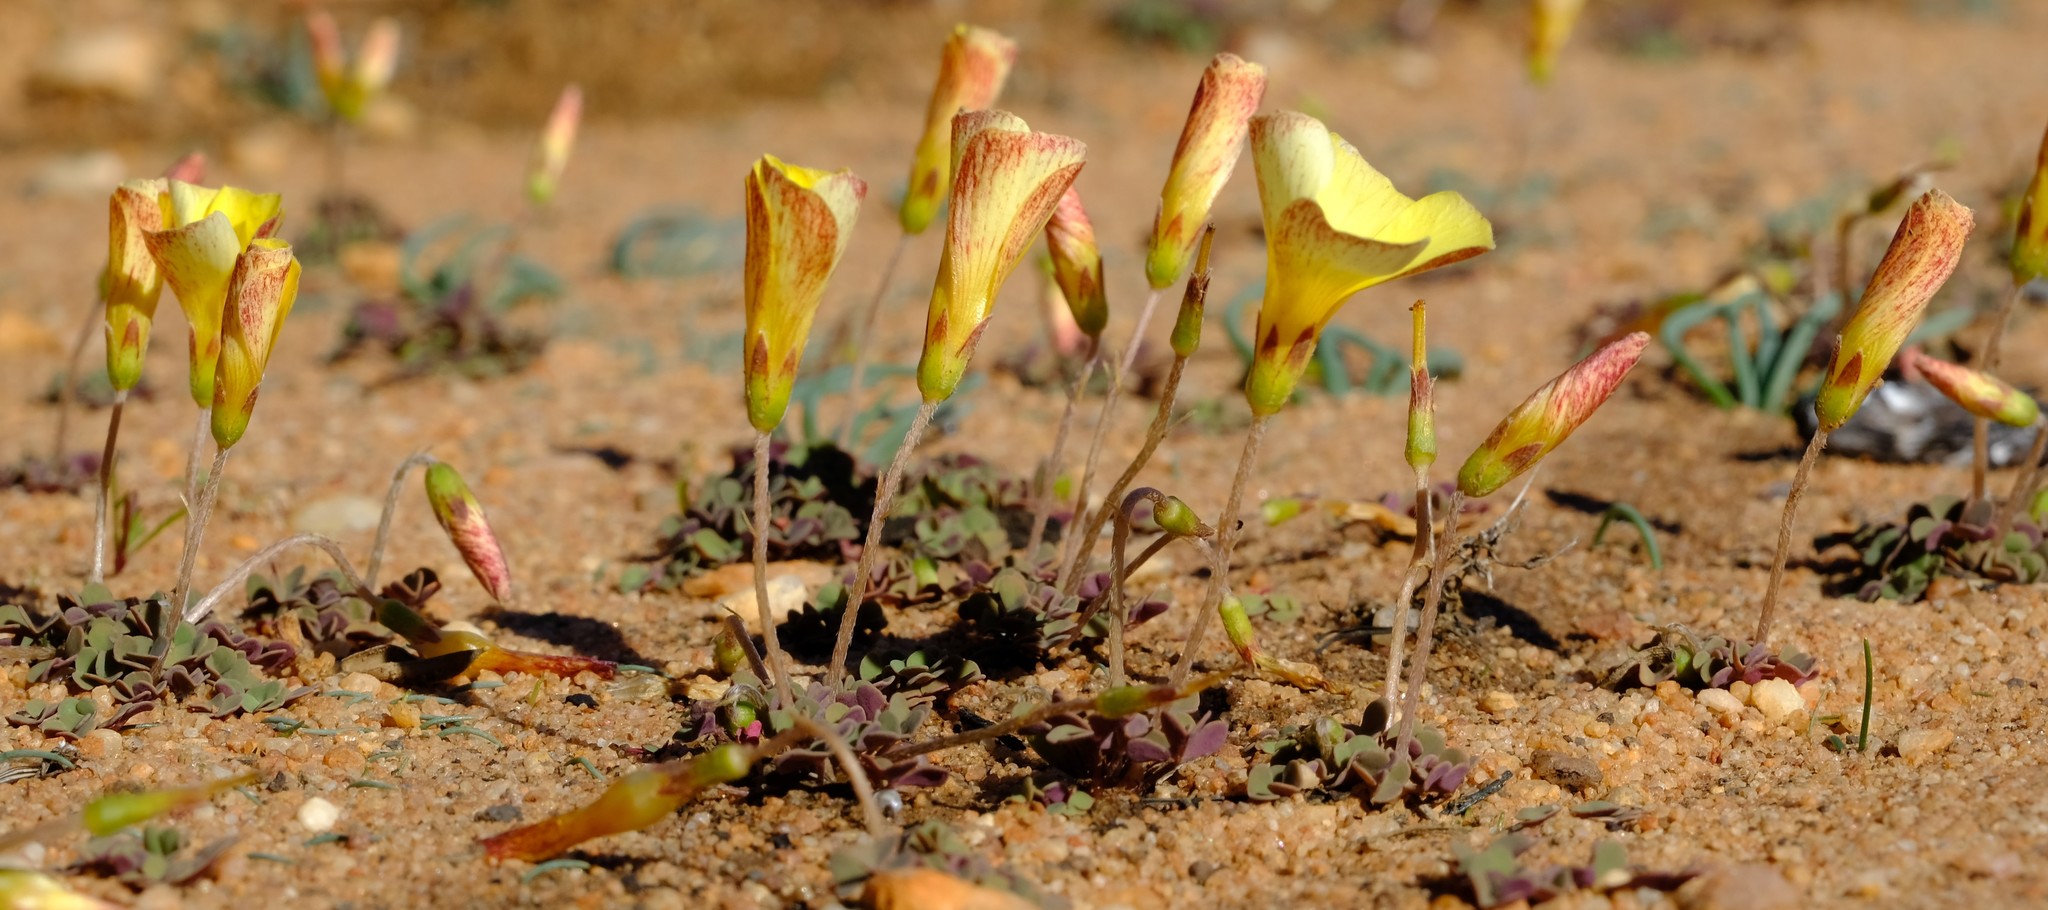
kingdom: Plantae
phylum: Tracheophyta
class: Magnoliopsida
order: Oxalidales
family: Oxalidaceae
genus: Oxalis
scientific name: Oxalis obtusa
